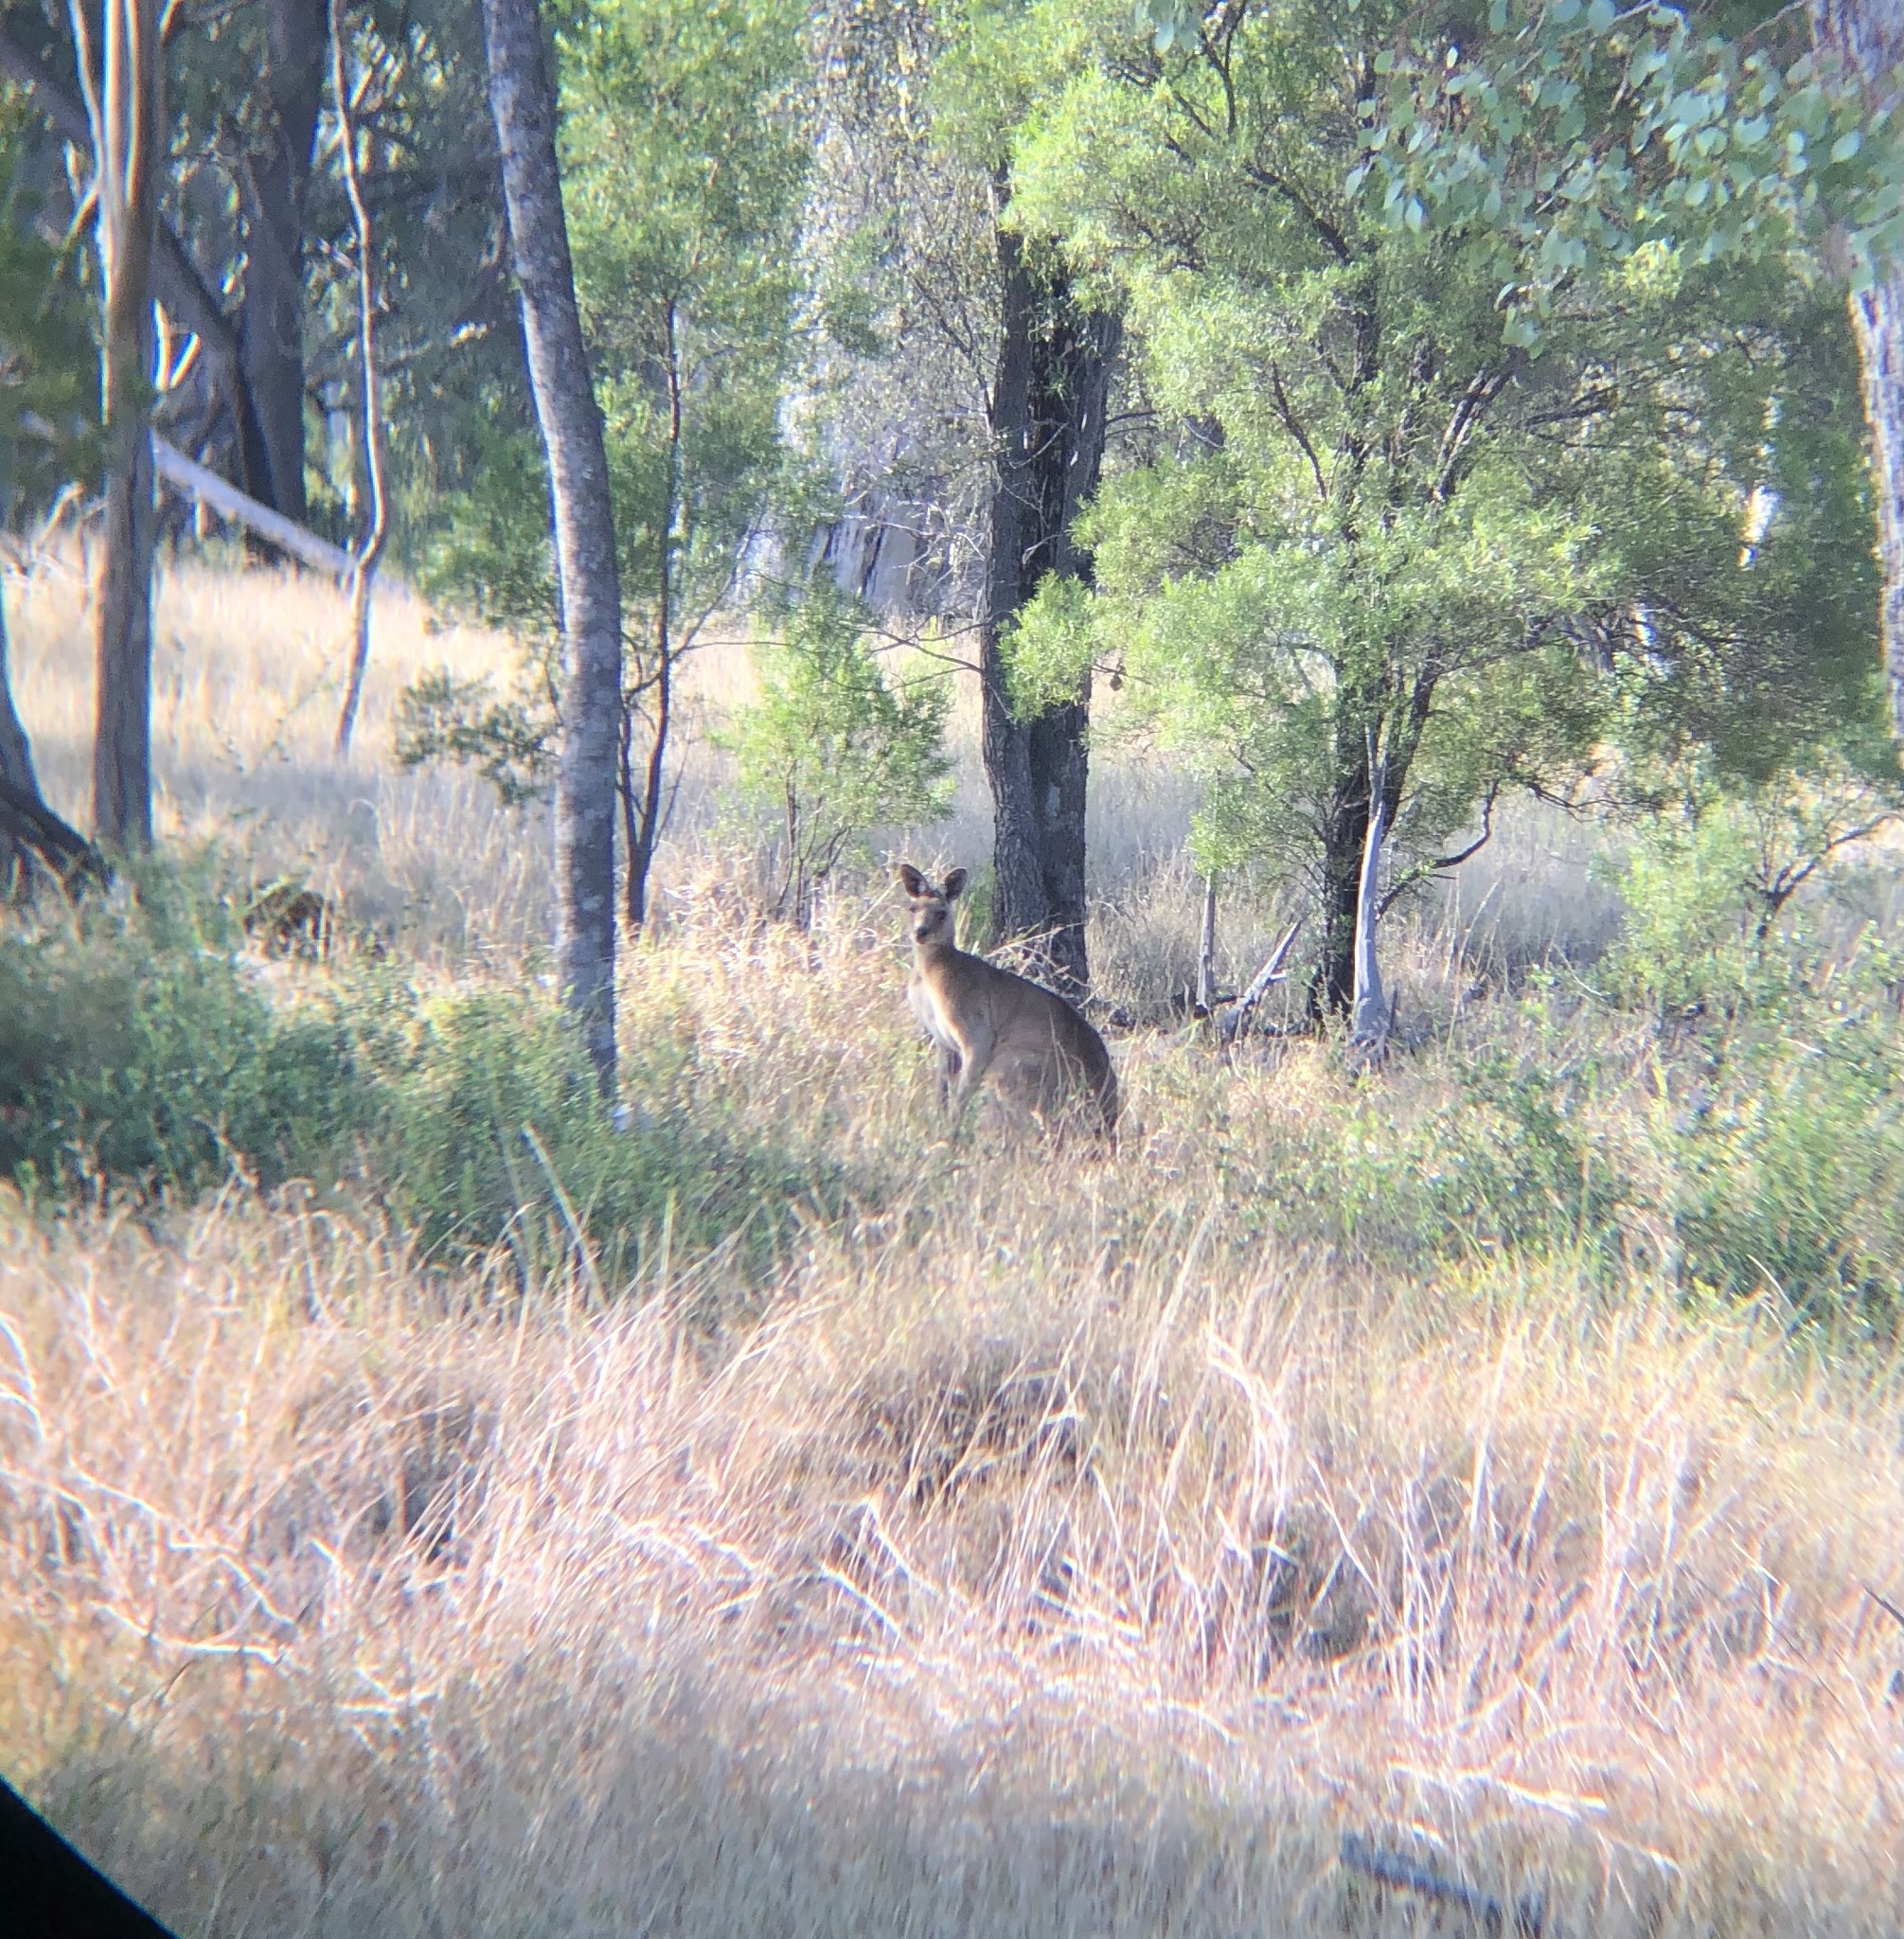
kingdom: Animalia
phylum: Chordata
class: Mammalia
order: Diprotodontia
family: Macropodidae
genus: Macropus
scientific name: Macropus giganteus
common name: Eastern grey kangaroo
